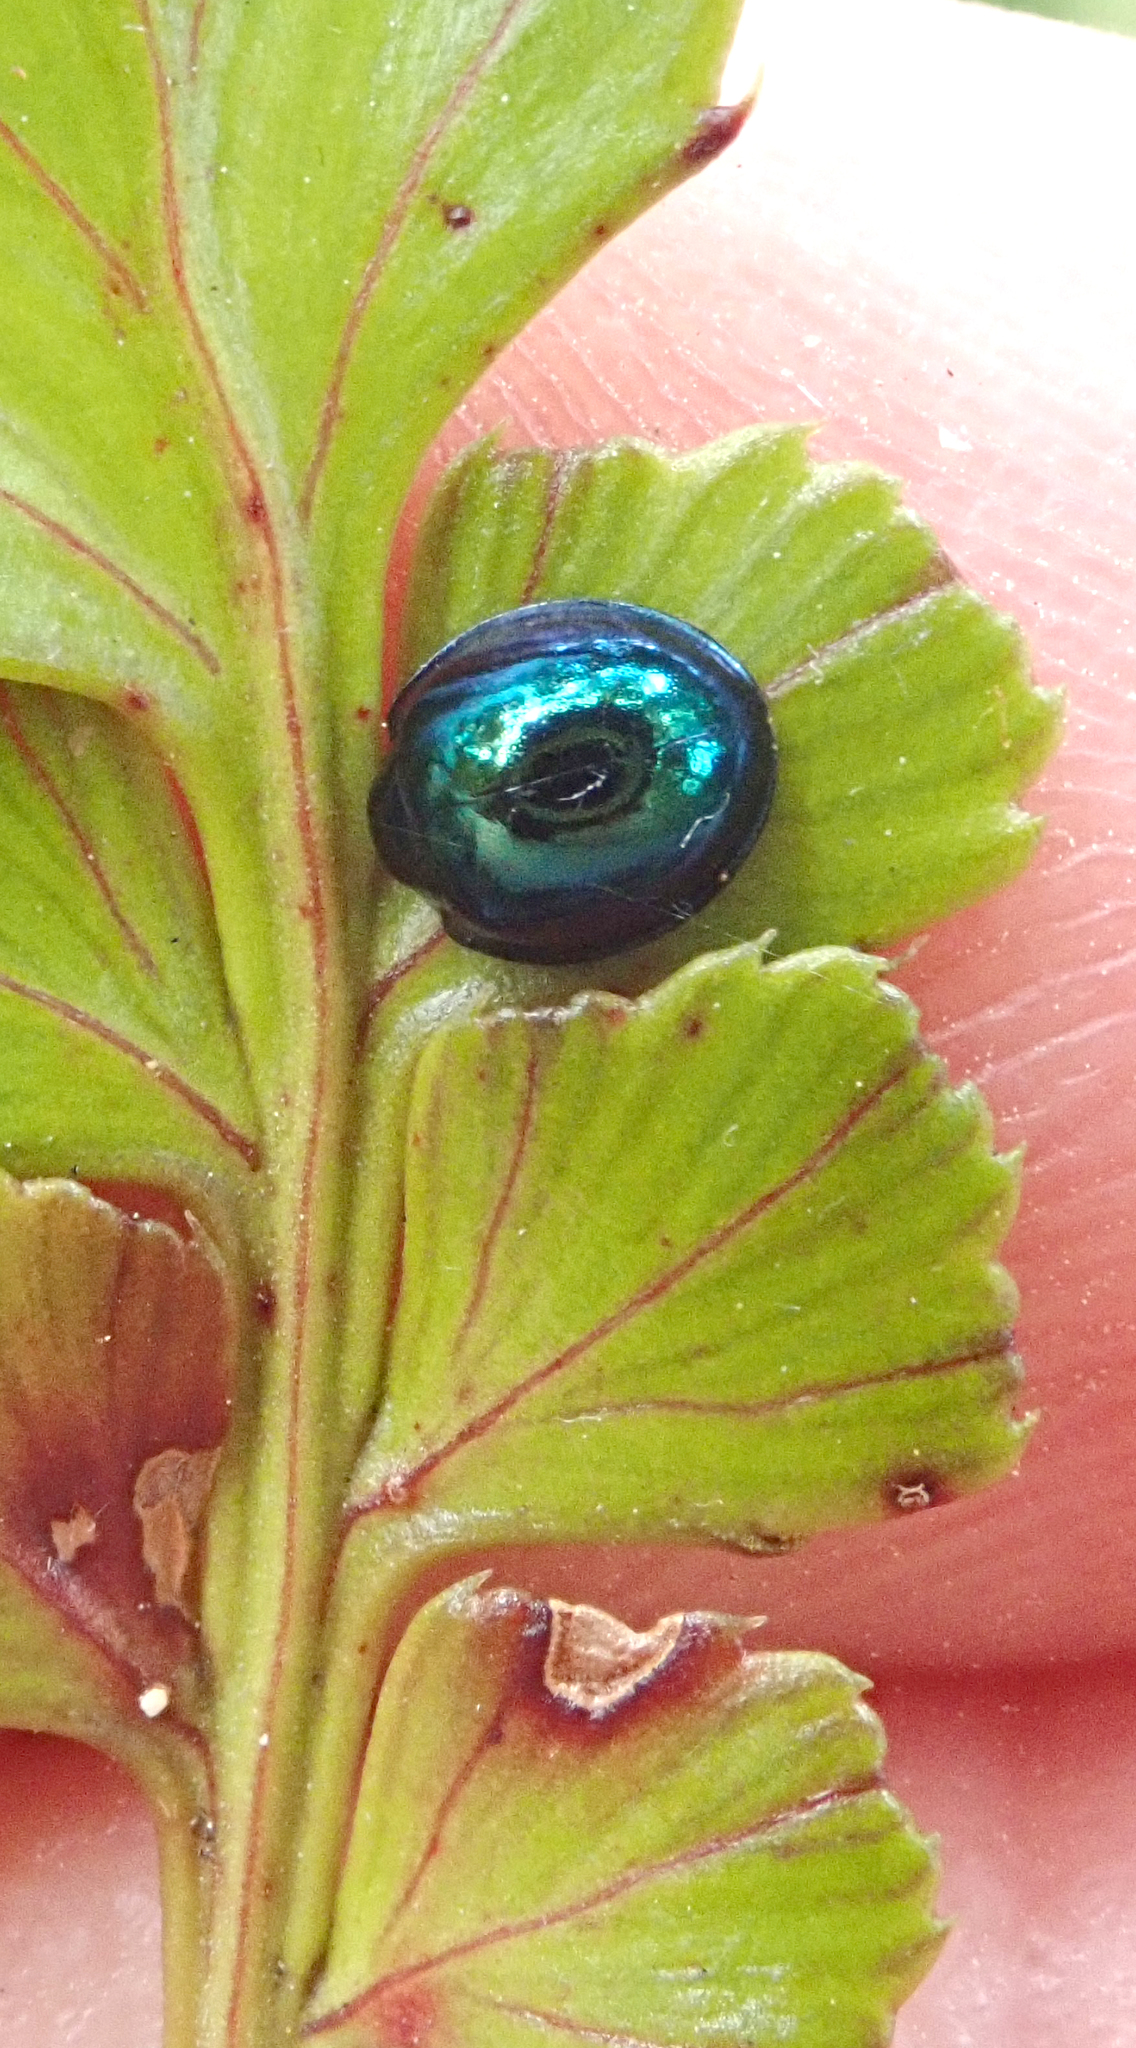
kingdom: Animalia
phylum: Arthropoda
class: Insecta
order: Coleoptera
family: Coccinellidae
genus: Halmus
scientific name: Halmus chalybeus
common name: Steel blue ladybird beetle
